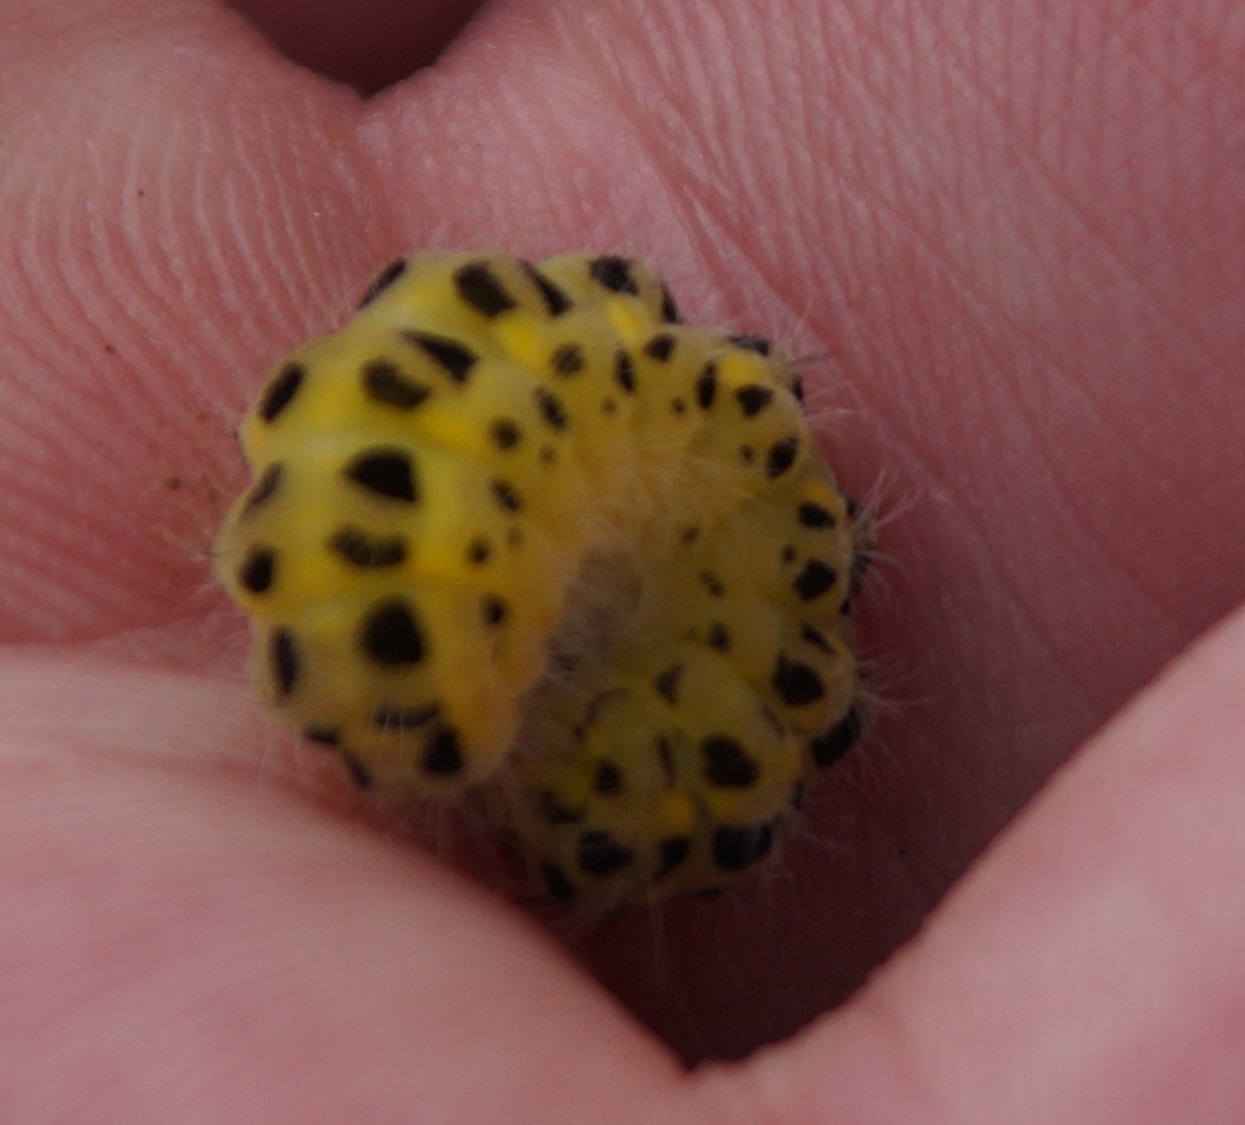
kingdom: Animalia
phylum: Arthropoda
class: Insecta
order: Lepidoptera
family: Zygaenidae
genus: Zygaena
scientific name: Zygaena filipendulae
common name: Six-spot burnet
